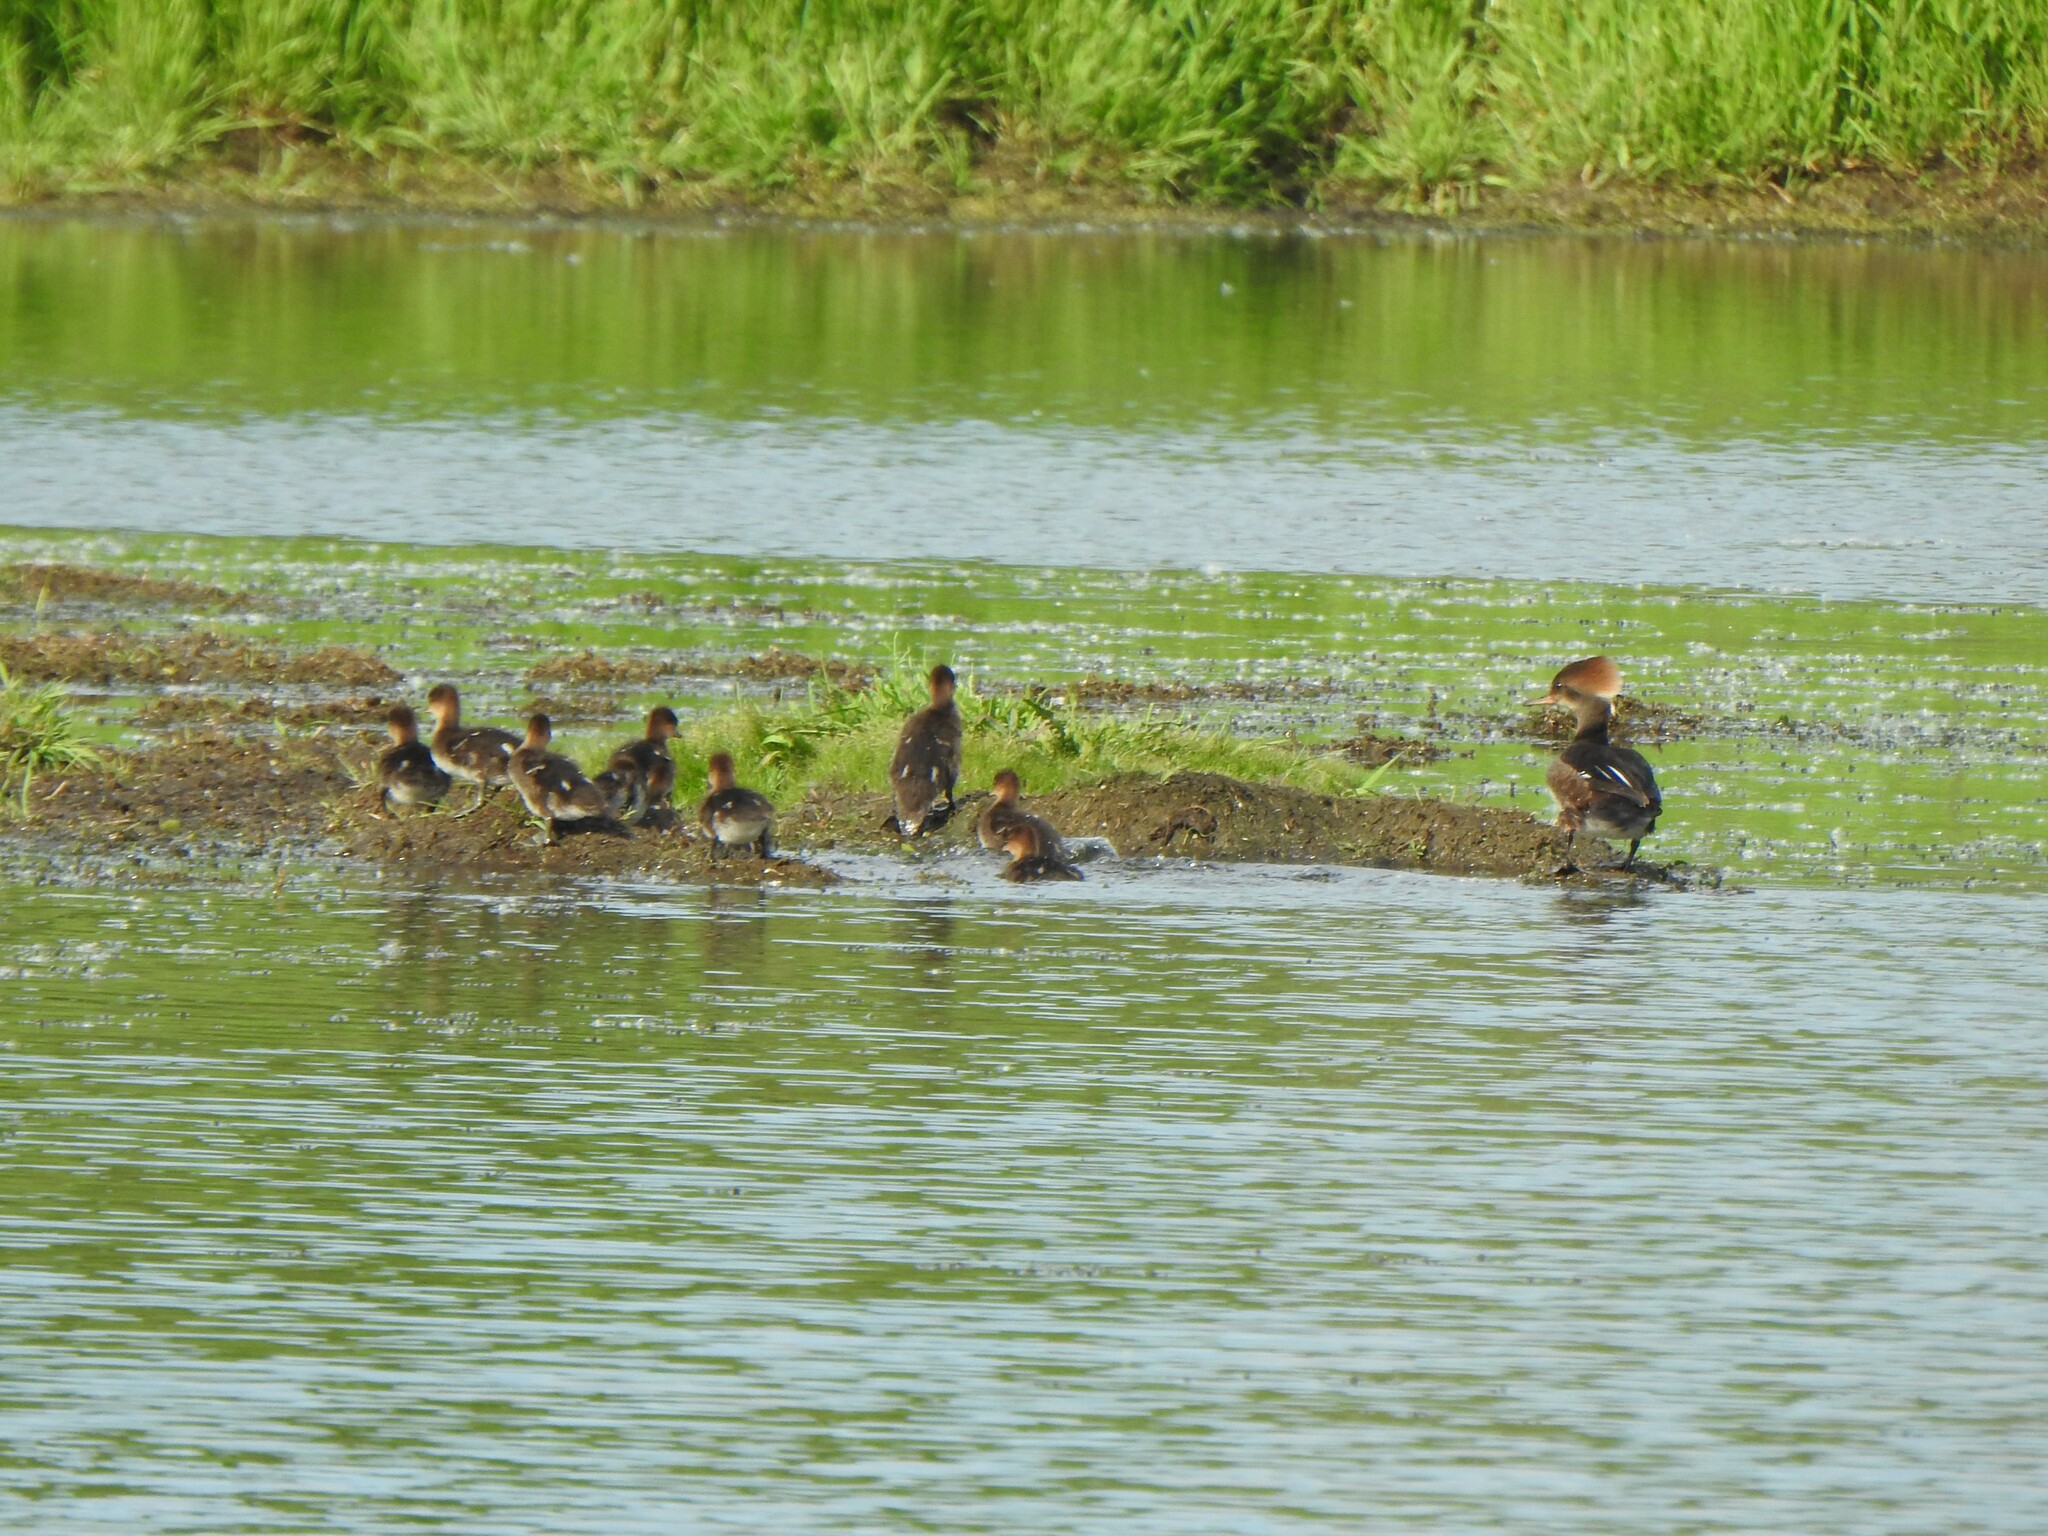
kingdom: Animalia
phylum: Chordata
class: Aves
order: Anseriformes
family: Anatidae
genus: Lophodytes
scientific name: Lophodytes cucullatus
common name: Hooded merganser
